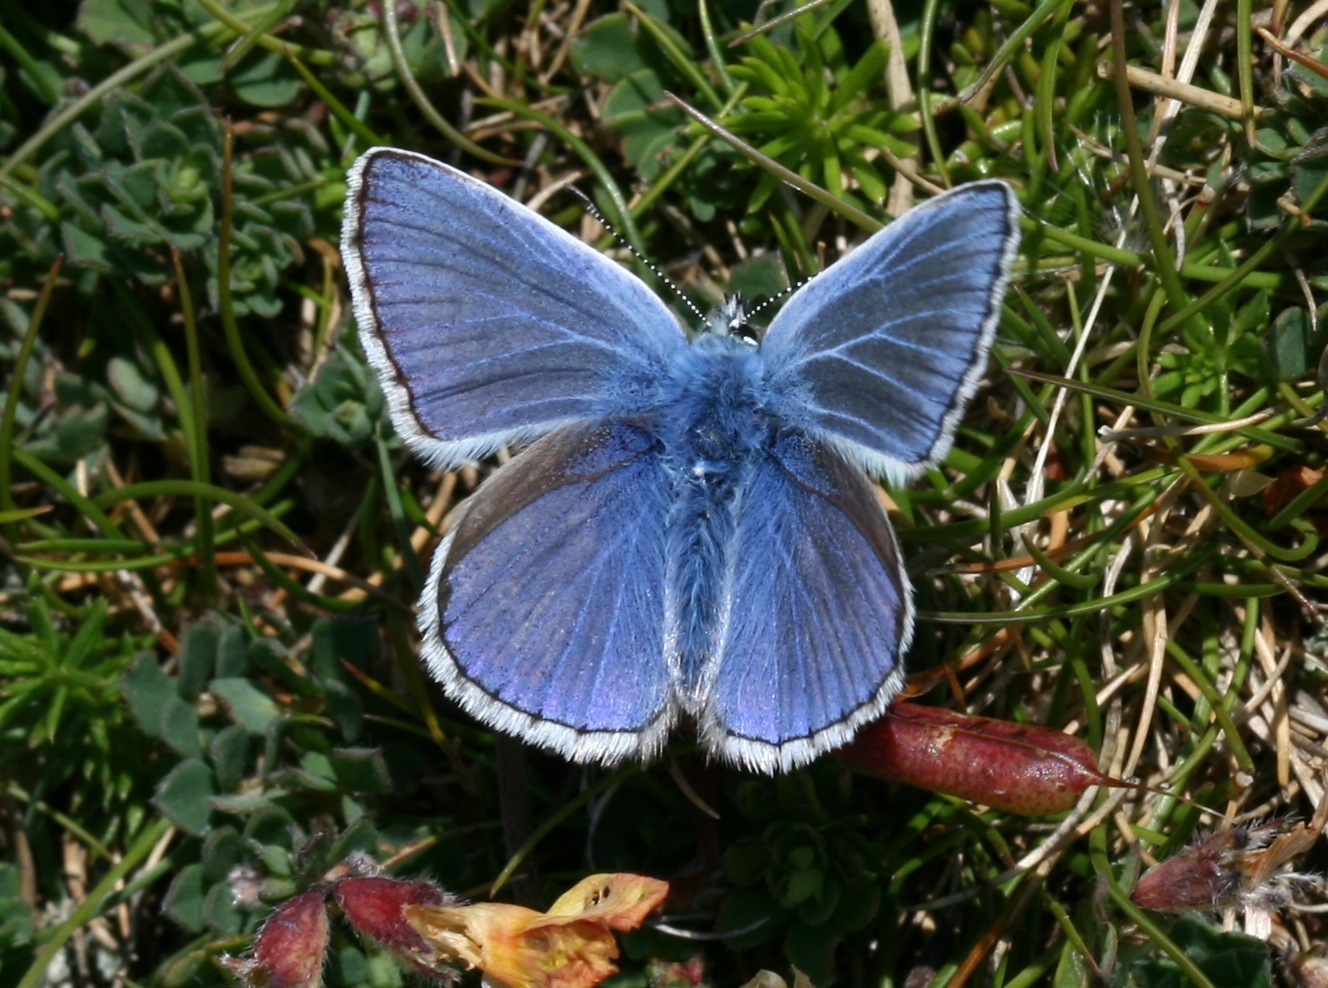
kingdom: Animalia
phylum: Arthropoda
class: Insecta
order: Lepidoptera
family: Lycaenidae
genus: Polyommatus
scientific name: Polyommatus icarus
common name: Common blue
